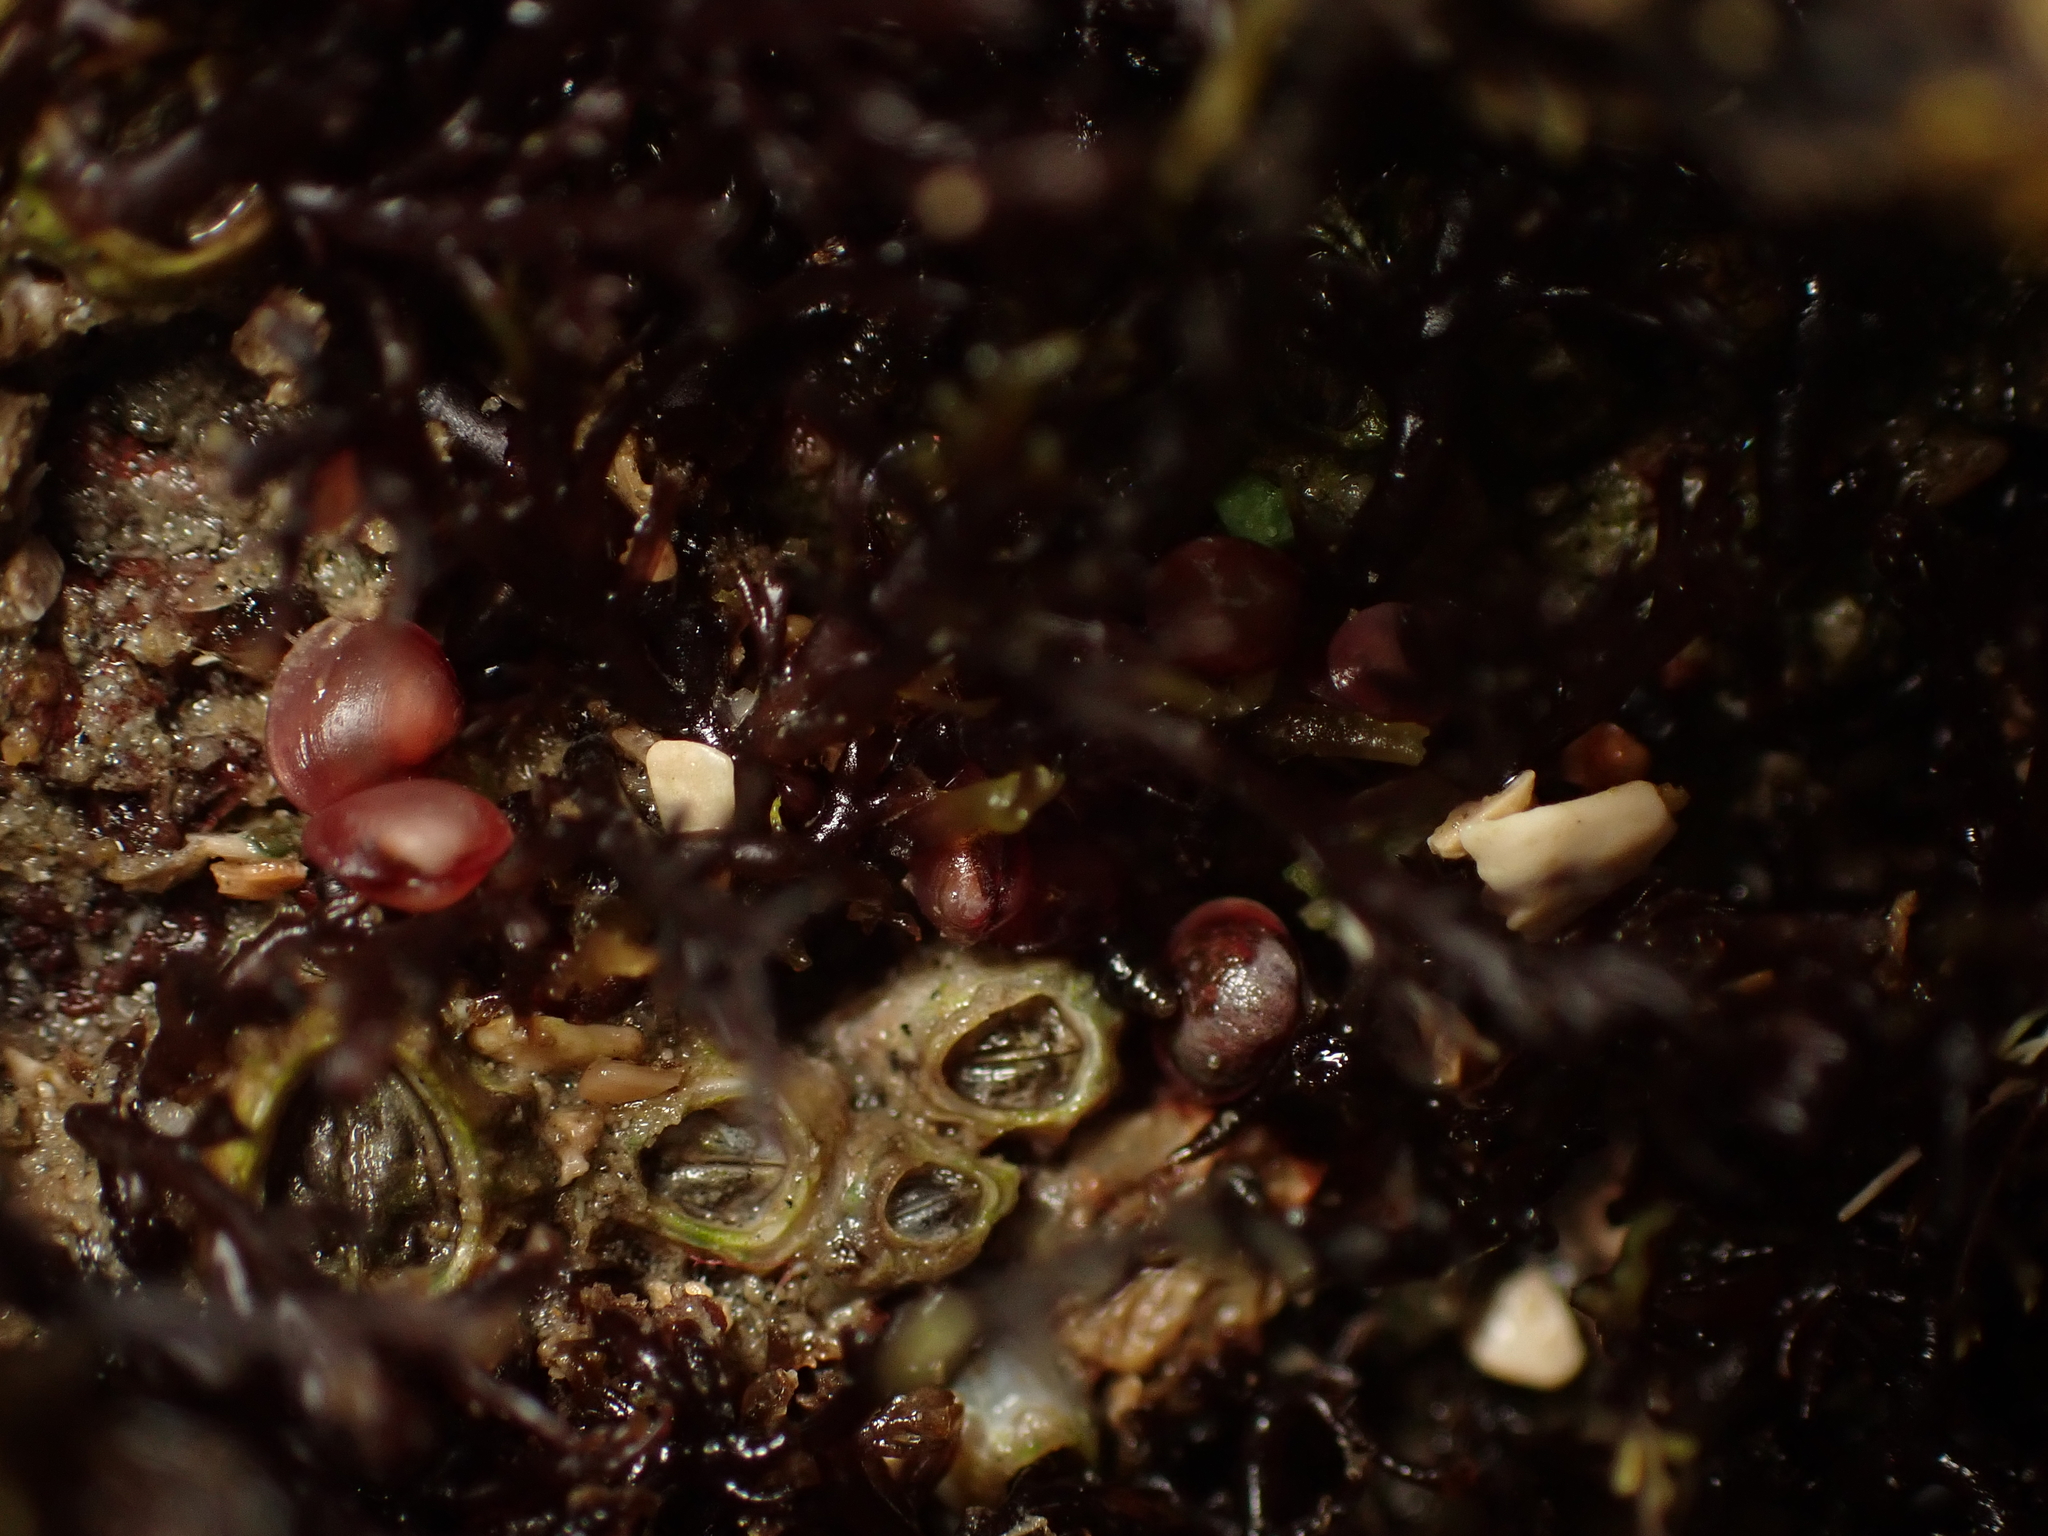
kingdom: Animalia
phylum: Mollusca
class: Bivalvia
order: Galeommatida
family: Lasaeidae
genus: Lasaea
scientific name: Lasaea hinemoa
